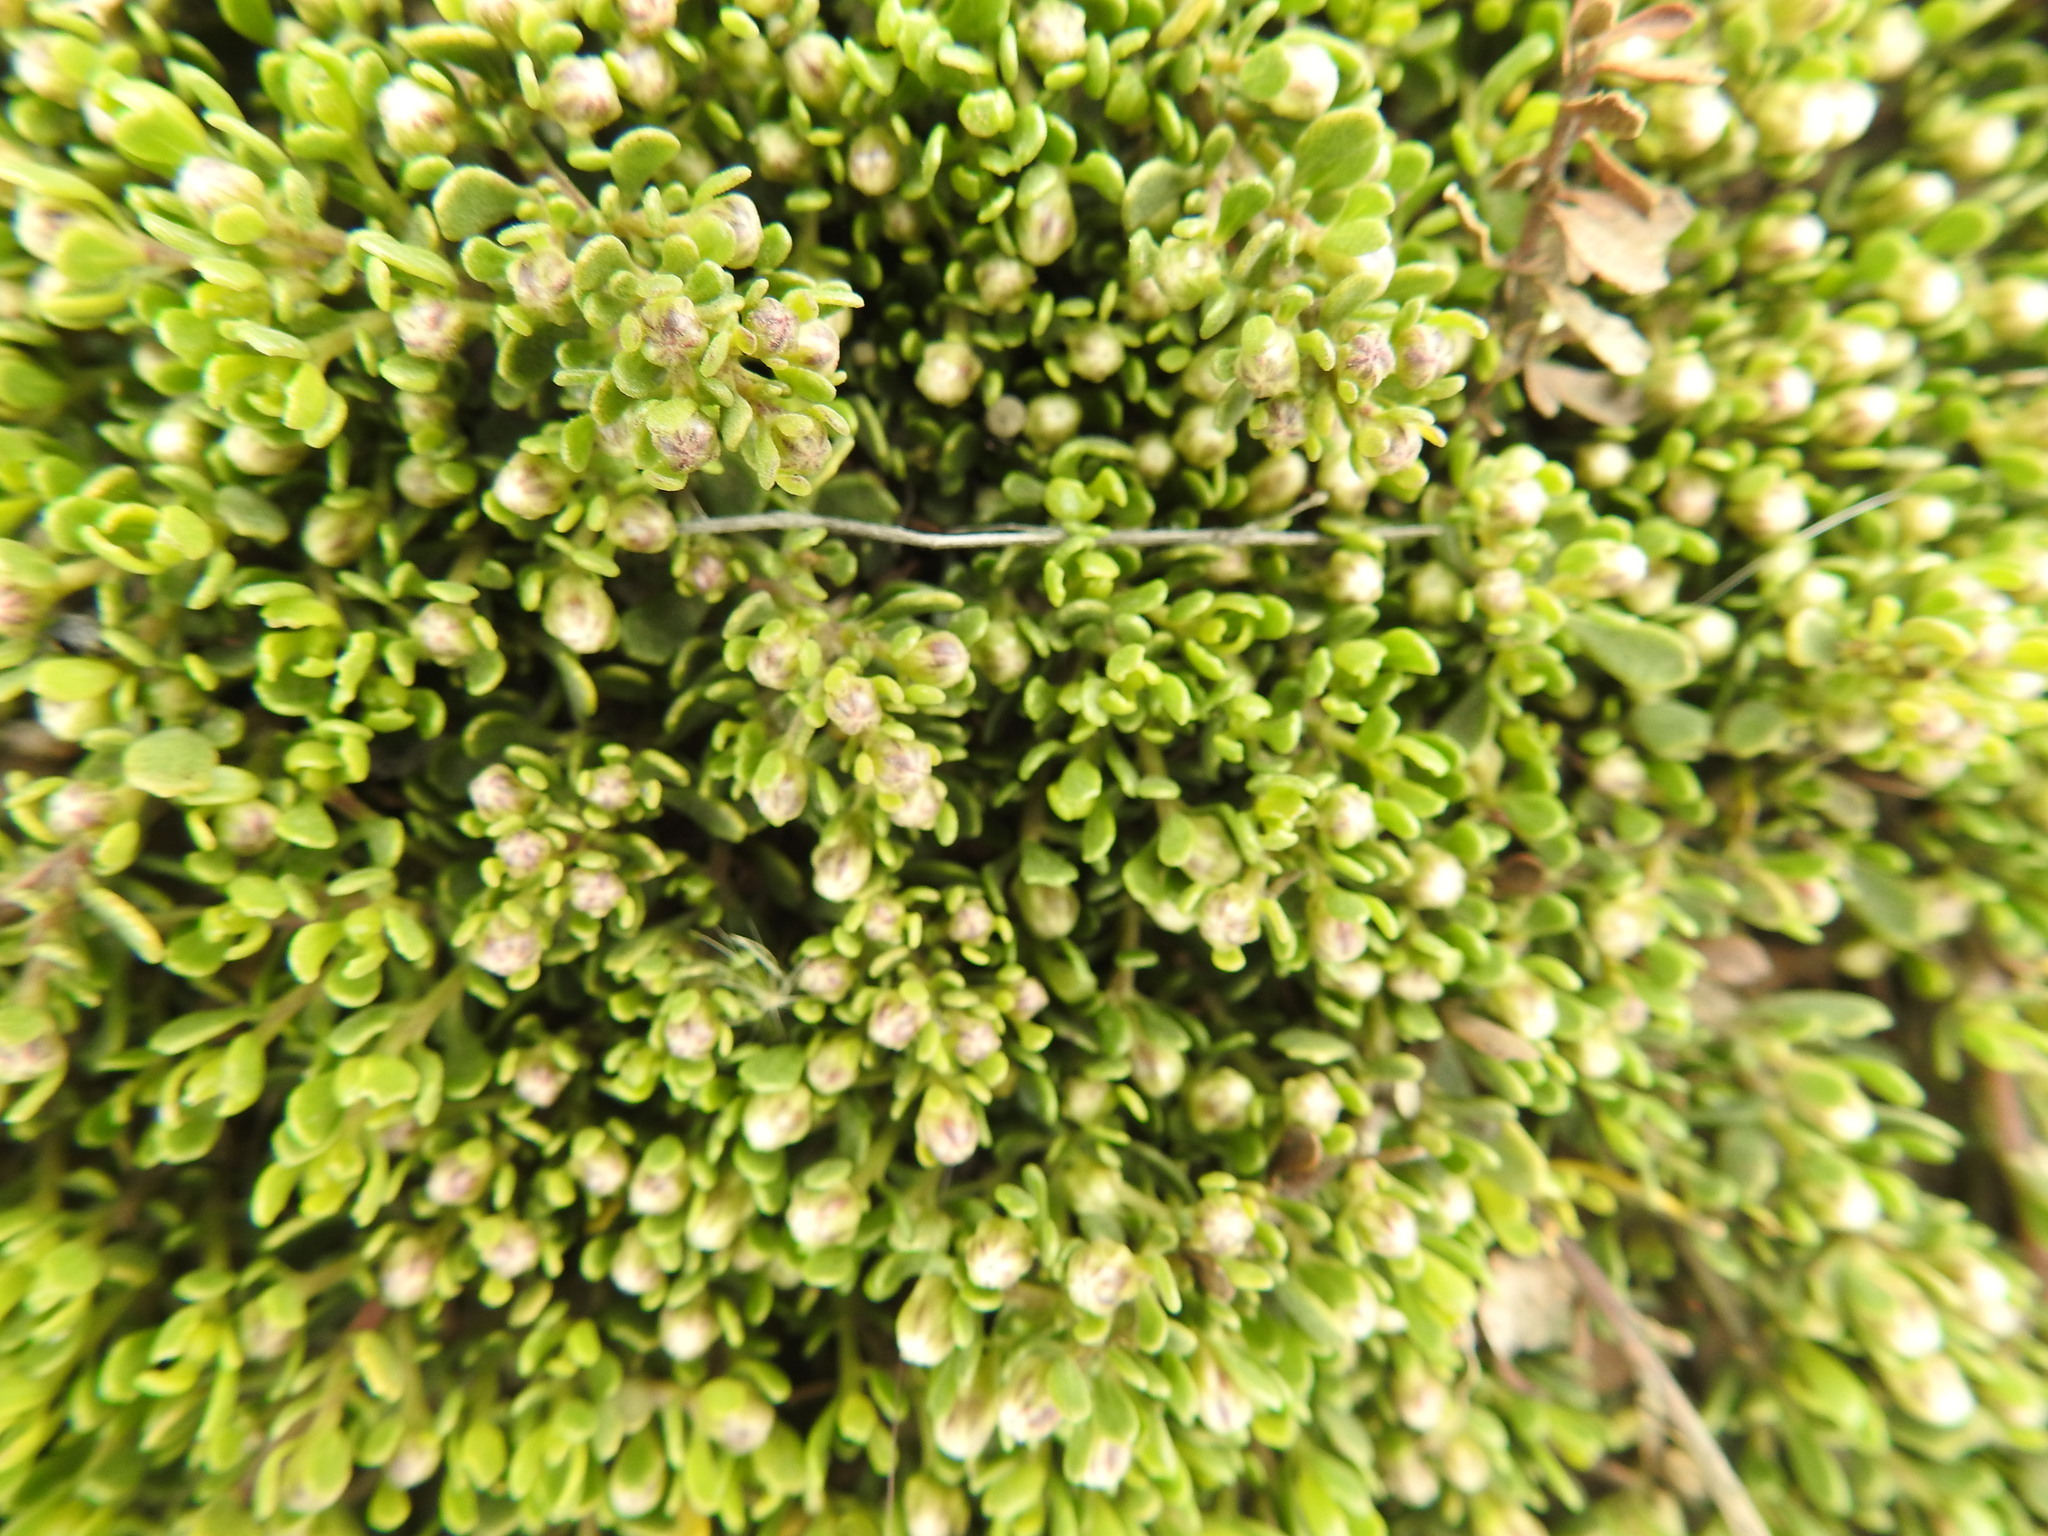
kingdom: Plantae
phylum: Tracheophyta
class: Magnoliopsida
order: Asterales
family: Asteraceae
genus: Baccharis
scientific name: Baccharis magellanica
